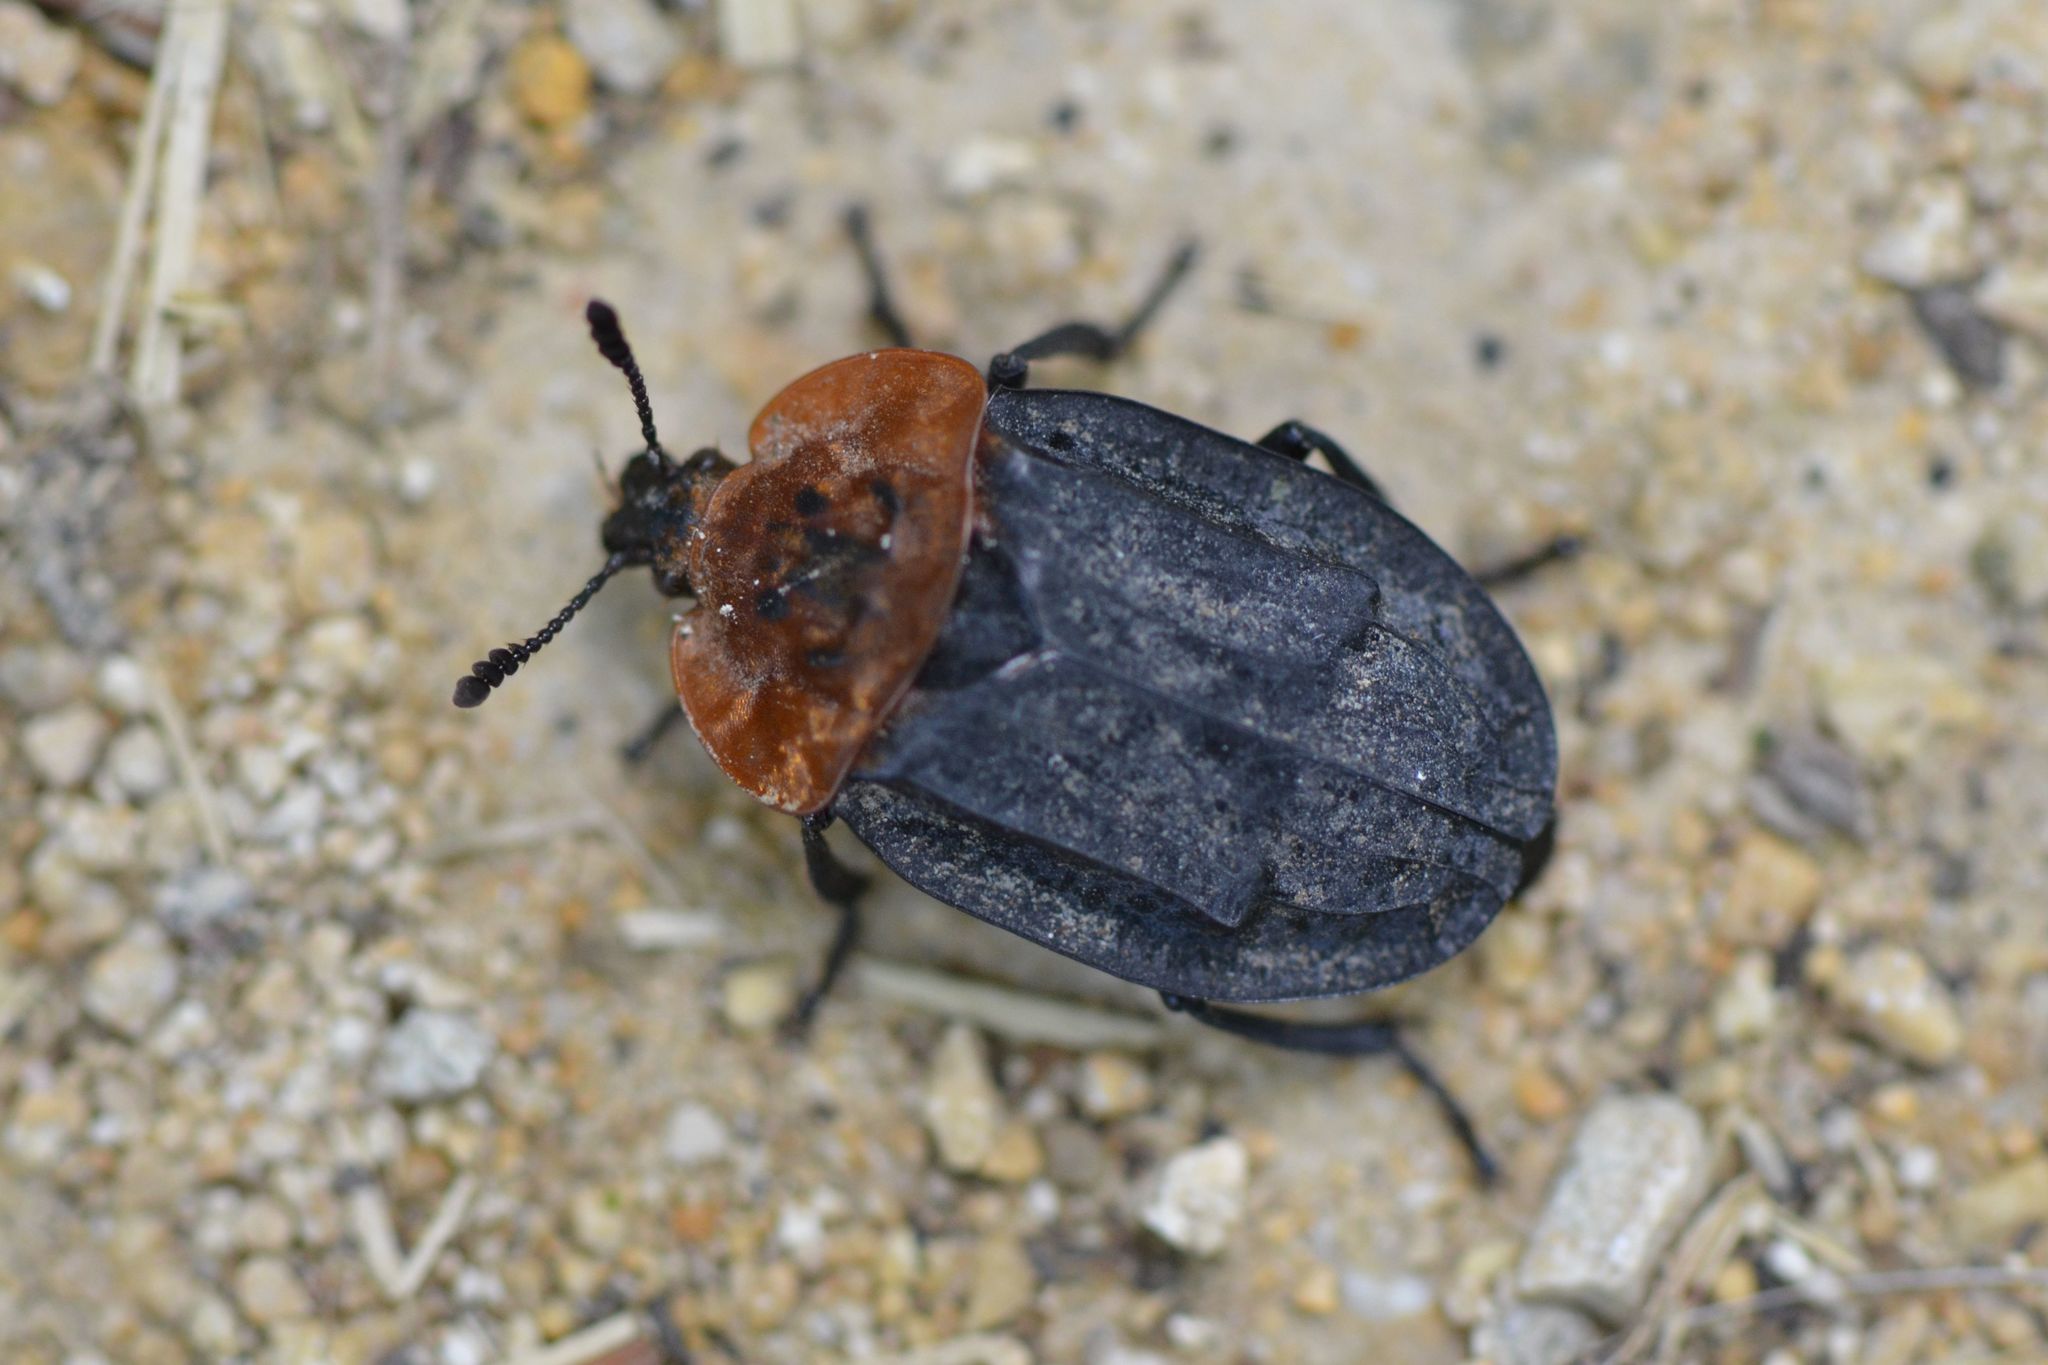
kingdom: Animalia
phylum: Arthropoda
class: Insecta
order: Coleoptera
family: Staphylinidae
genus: Oiceoptoma
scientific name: Oiceoptoma thoracicum
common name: Red-breasted carrion beetle
